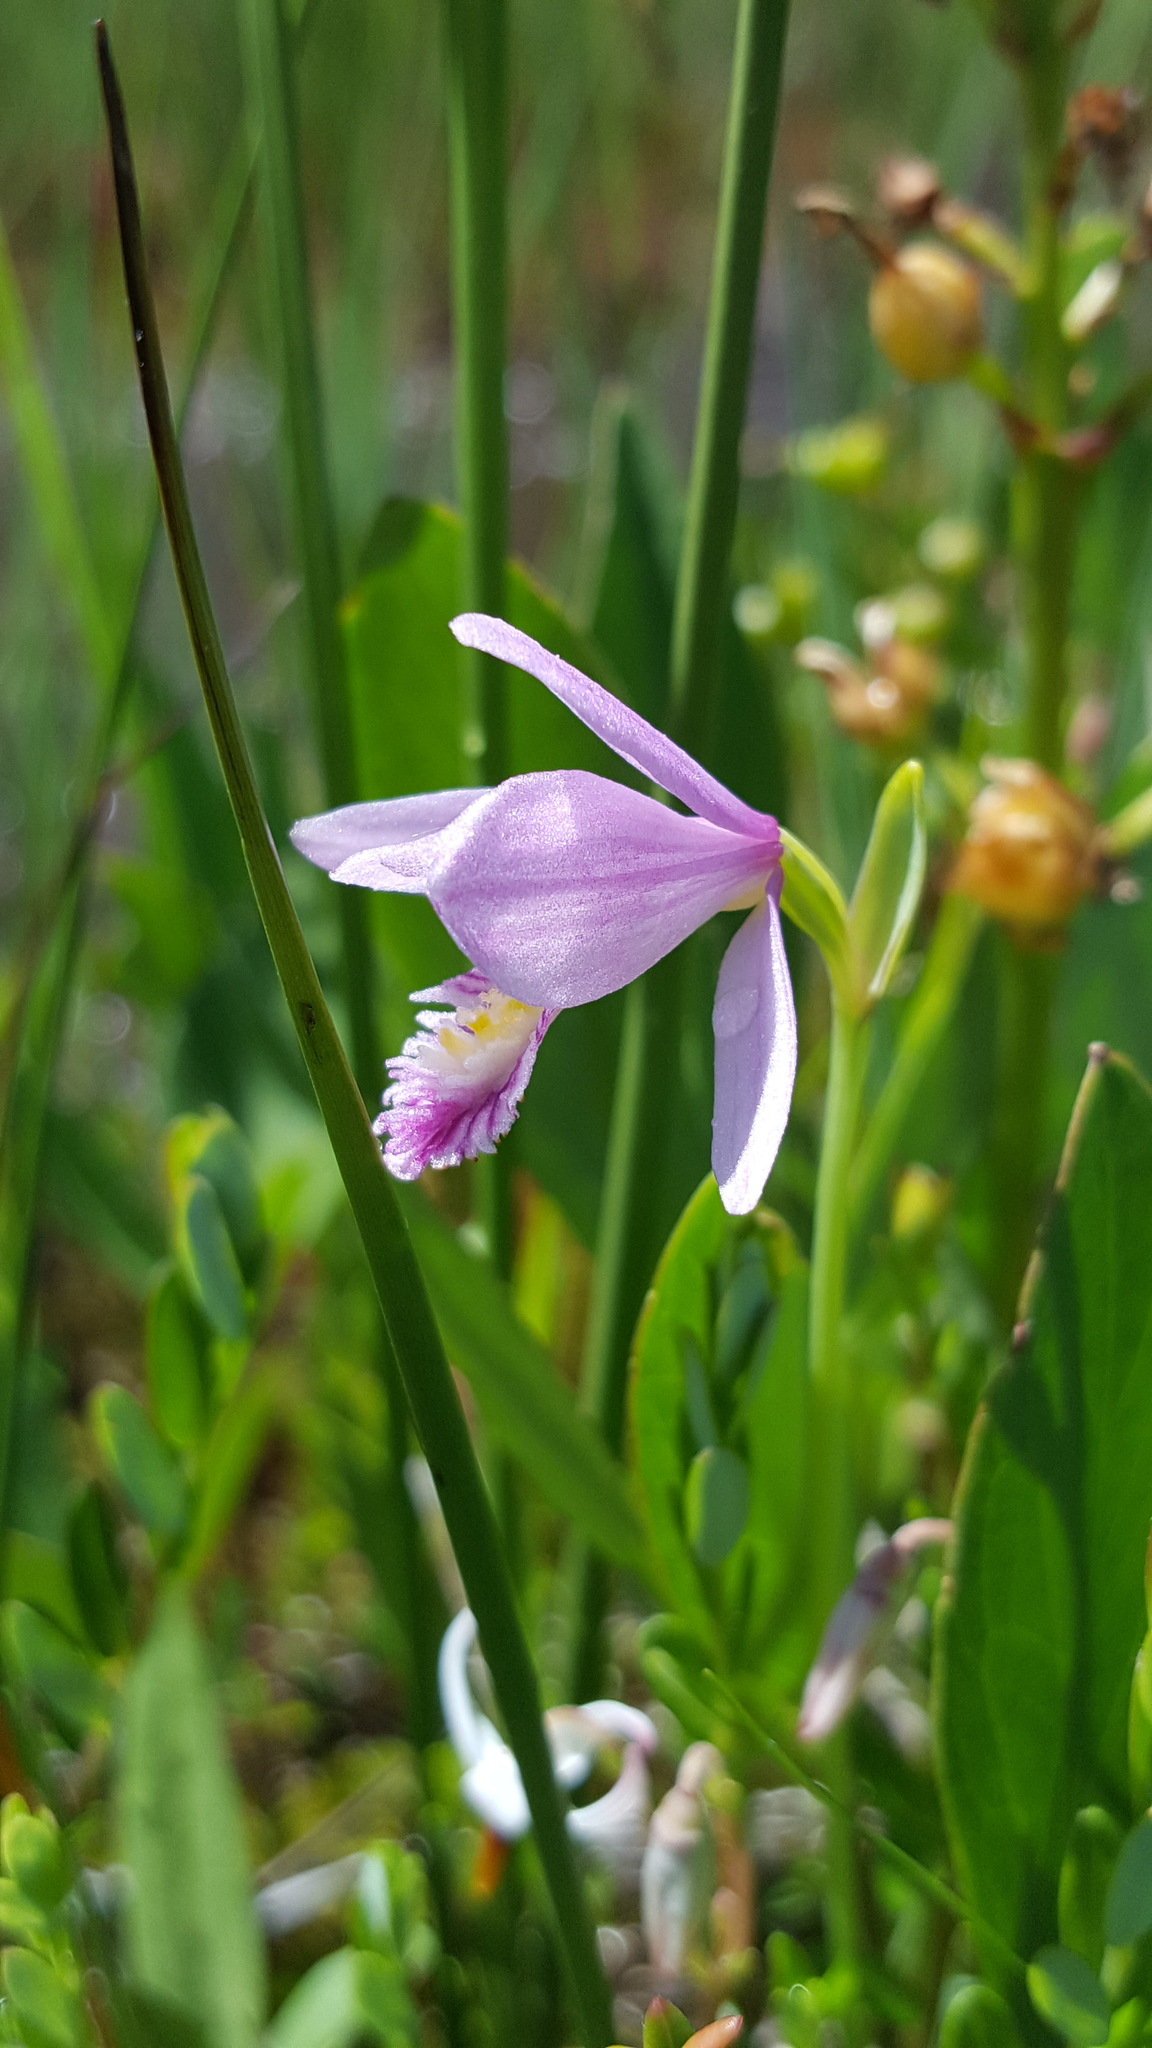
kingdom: Plantae
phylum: Tracheophyta
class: Liliopsida
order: Asparagales
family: Orchidaceae
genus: Pogonia
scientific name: Pogonia ophioglossoides
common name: Rose pogonia
